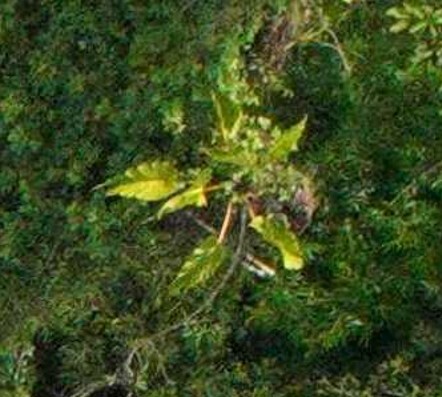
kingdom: Plantae
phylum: Tracheophyta
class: Liliopsida
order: Alismatales
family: Araceae
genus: Philodendron
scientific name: Philodendron melinonii
